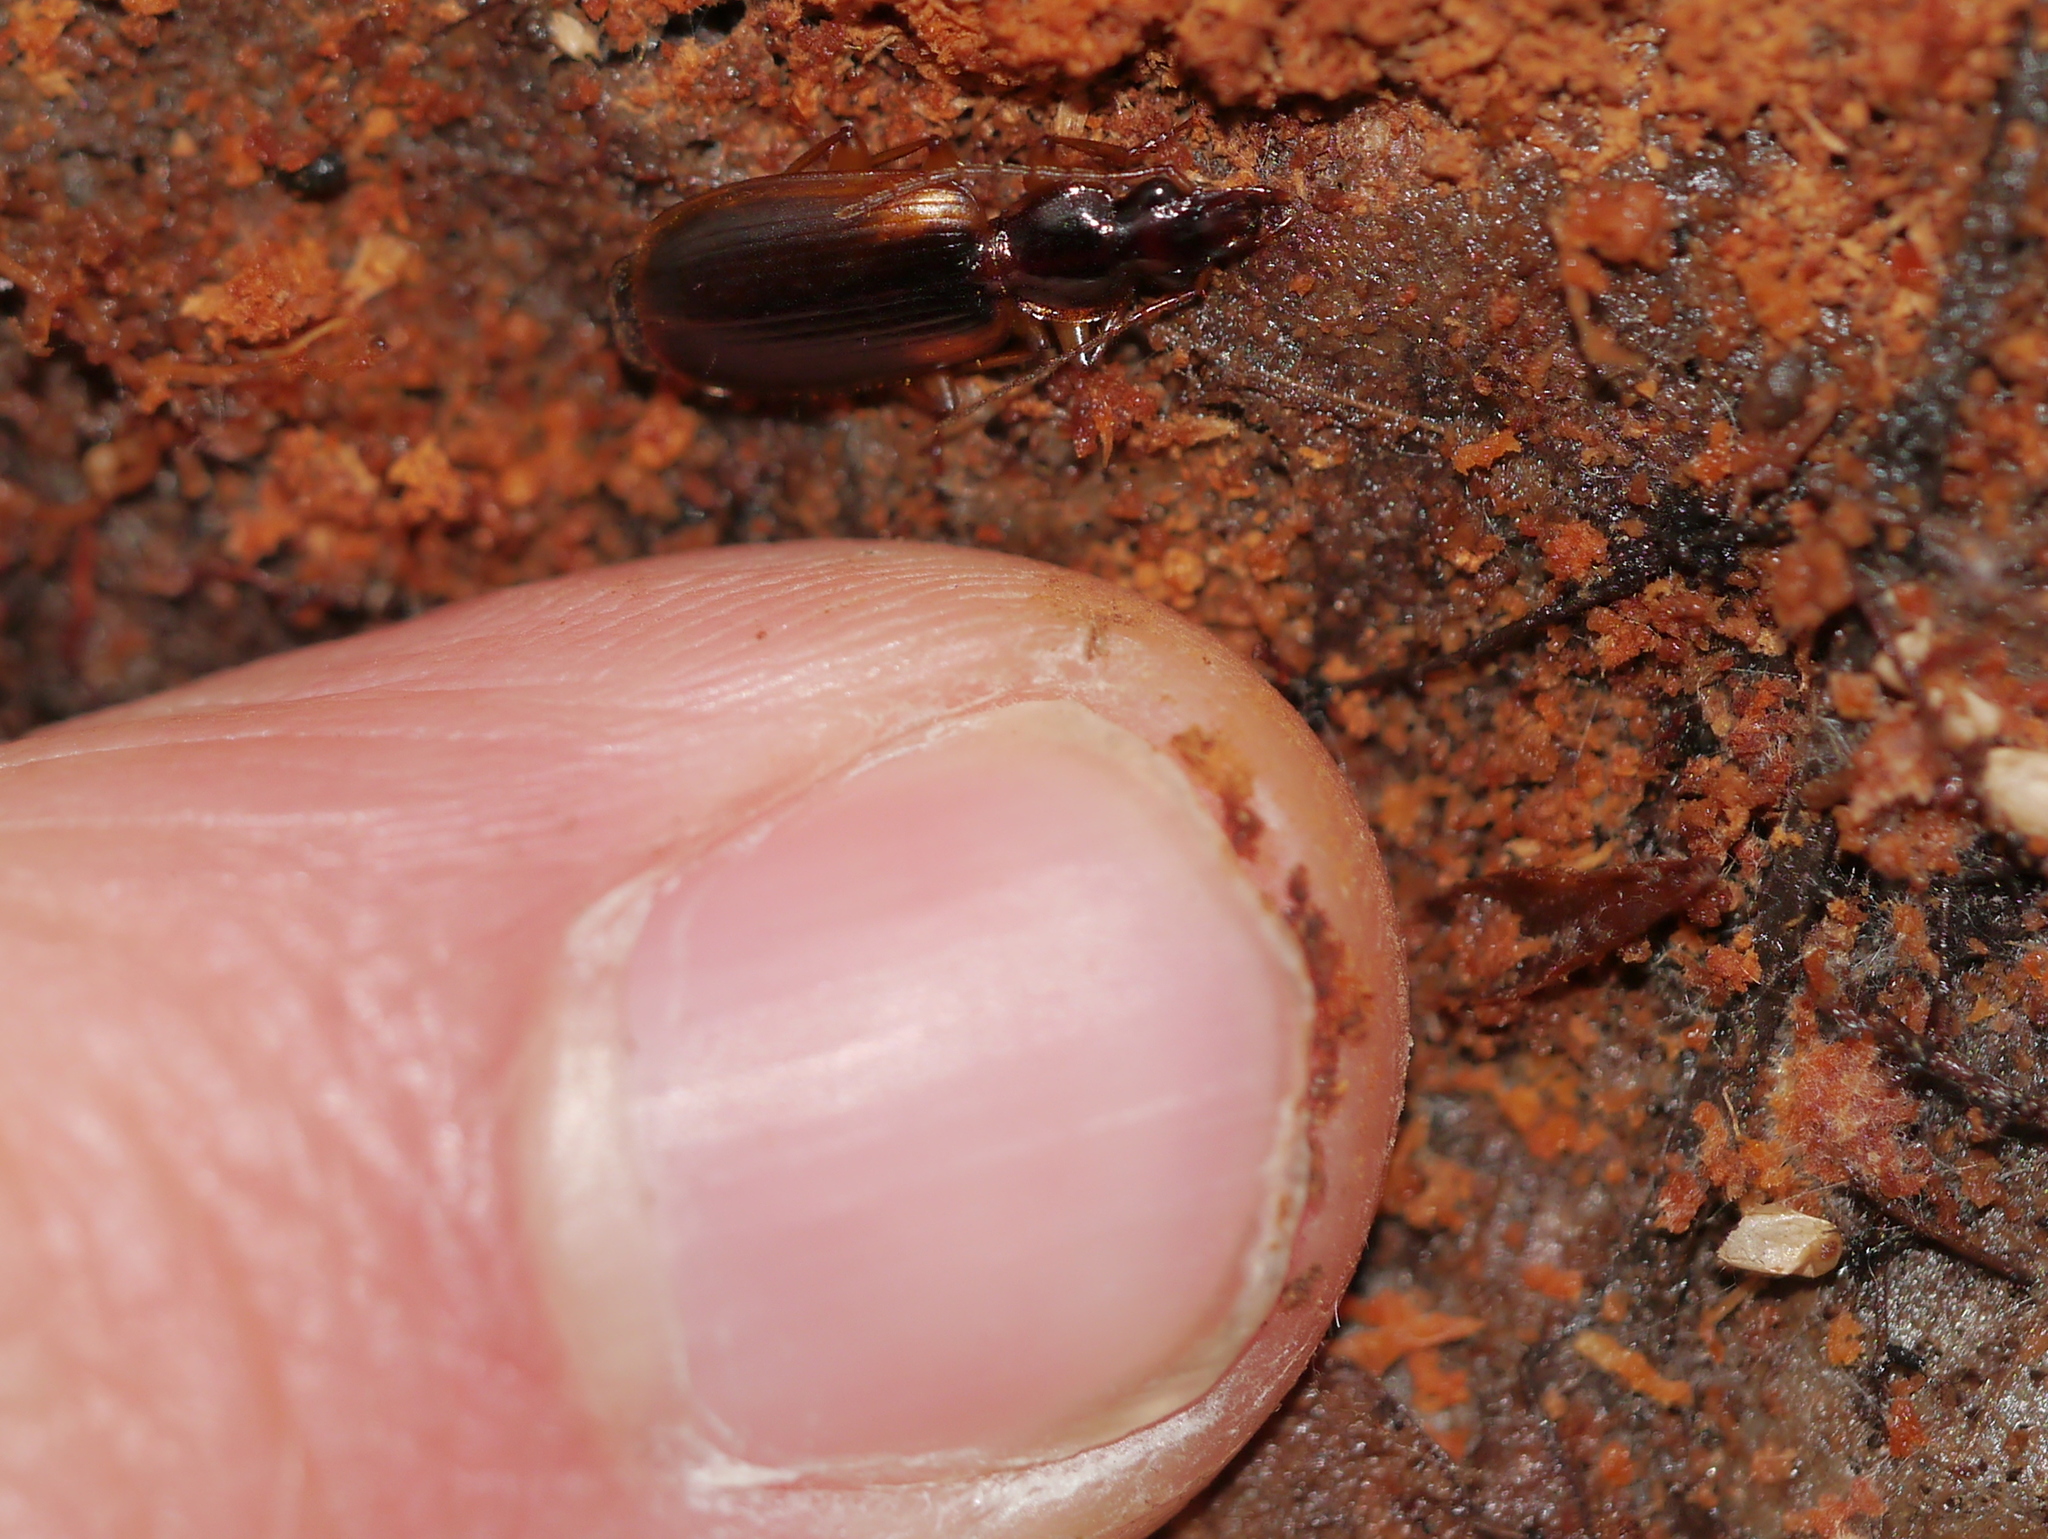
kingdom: Animalia
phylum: Arthropoda
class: Insecta
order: Coleoptera
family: Carabidae
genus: Pinacodera
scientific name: Pinacodera limbata
